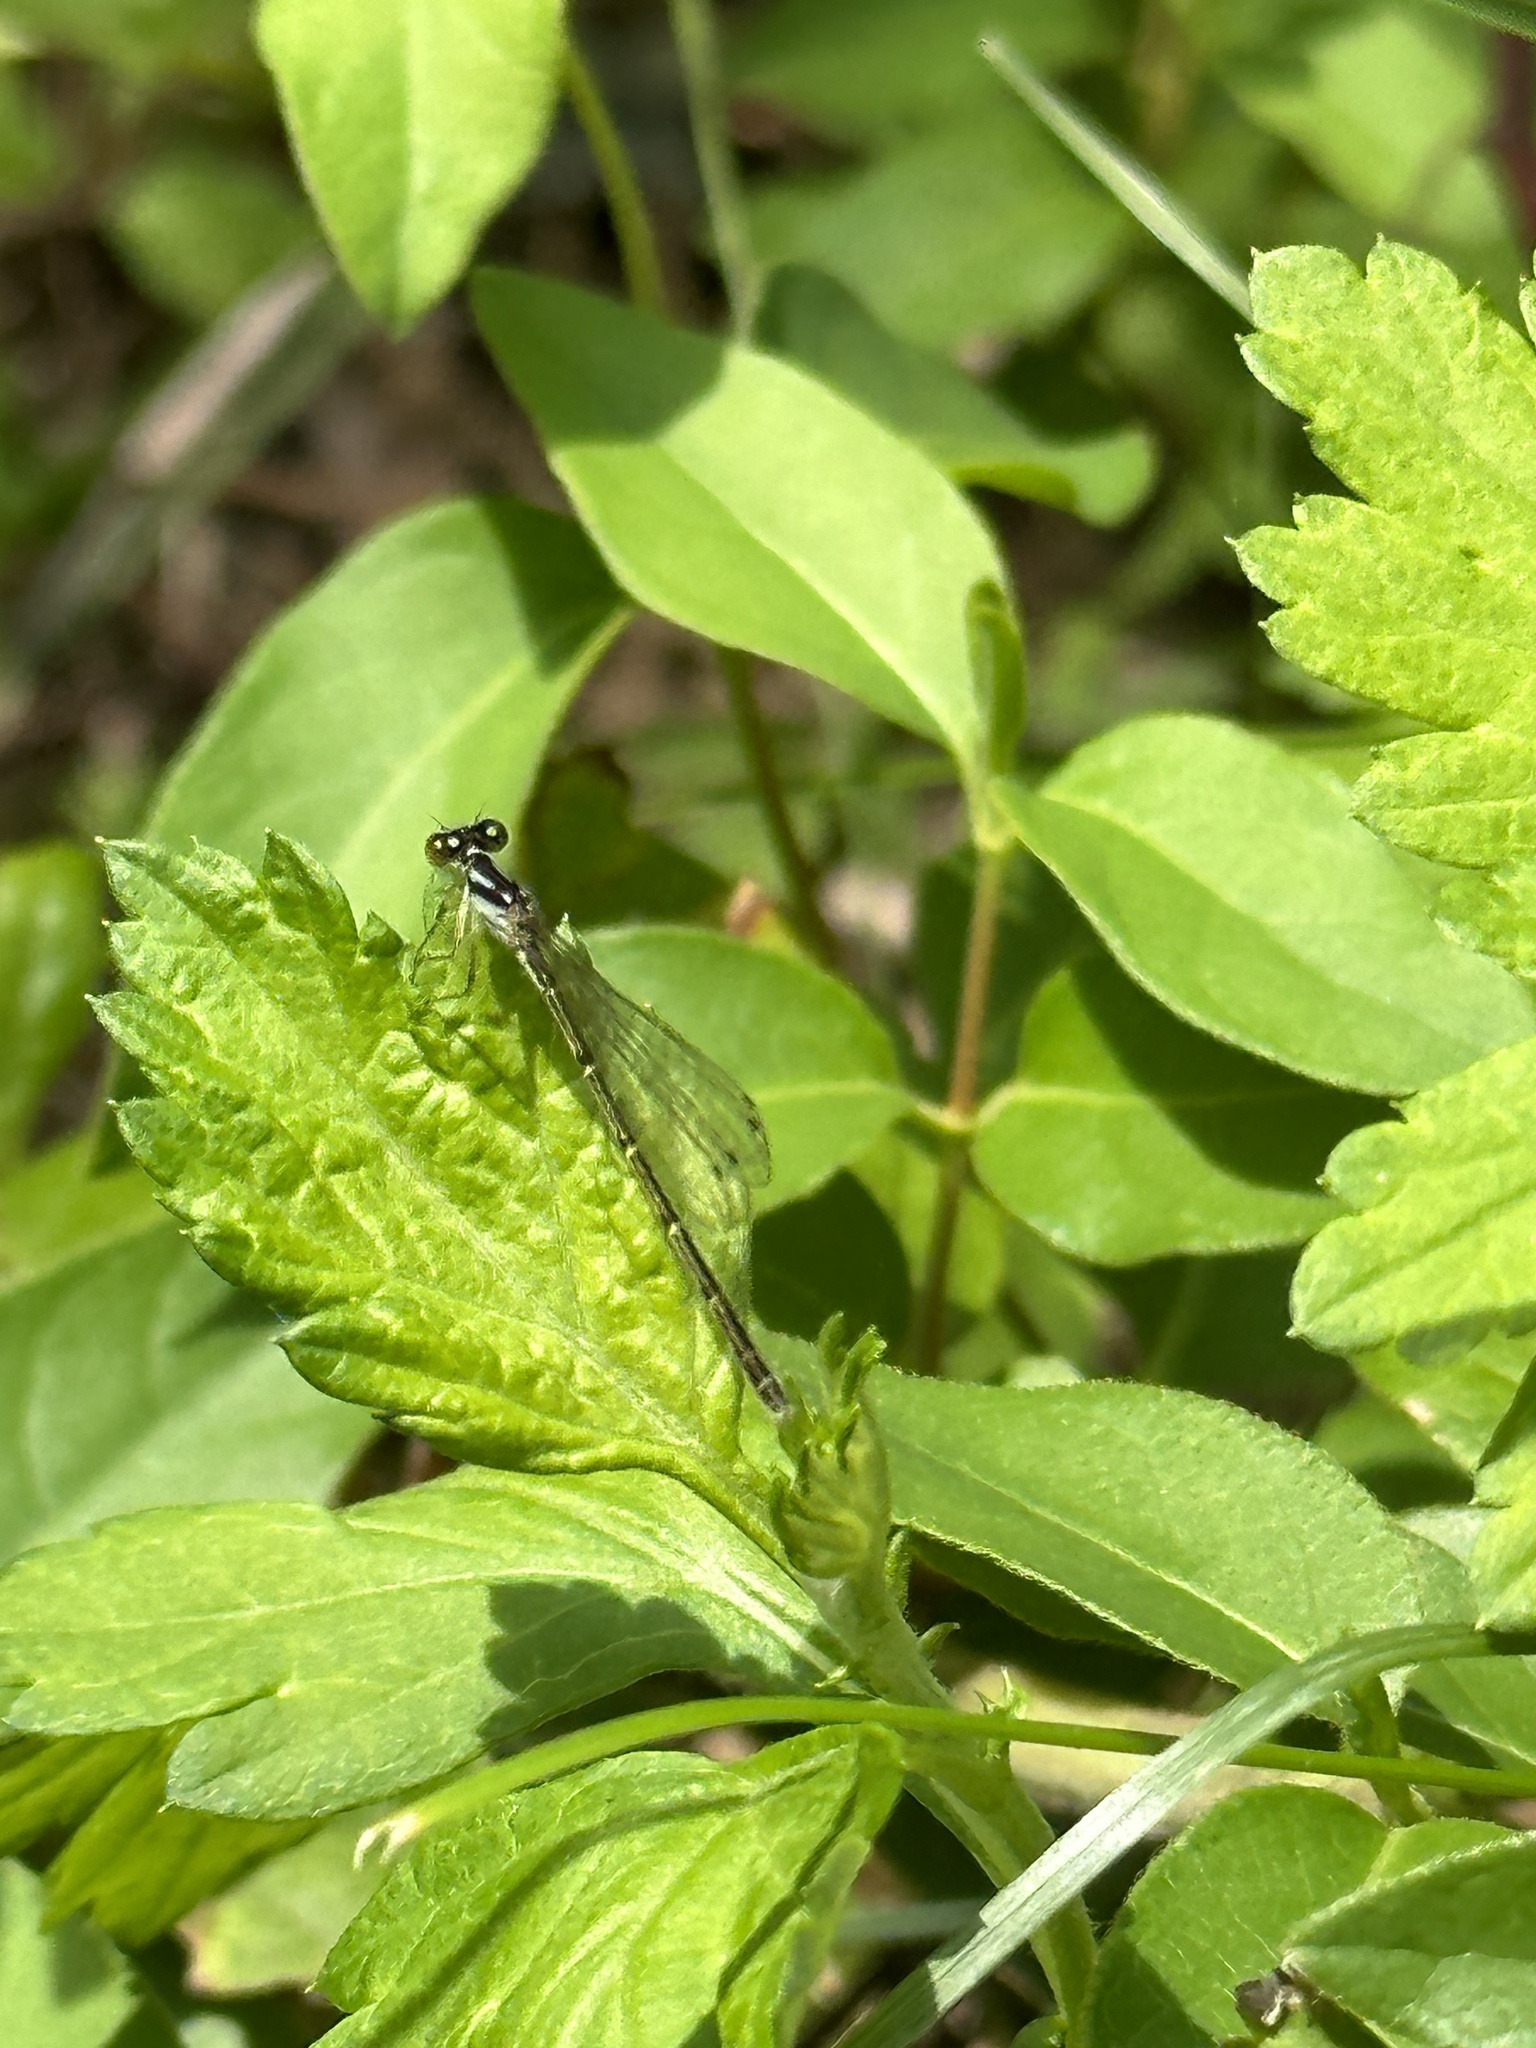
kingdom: Animalia
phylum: Arthropoda
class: Insecta
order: Odonata
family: Coenagrionidae
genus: Ischnura
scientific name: Ischnura posita
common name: Fragile forktail
